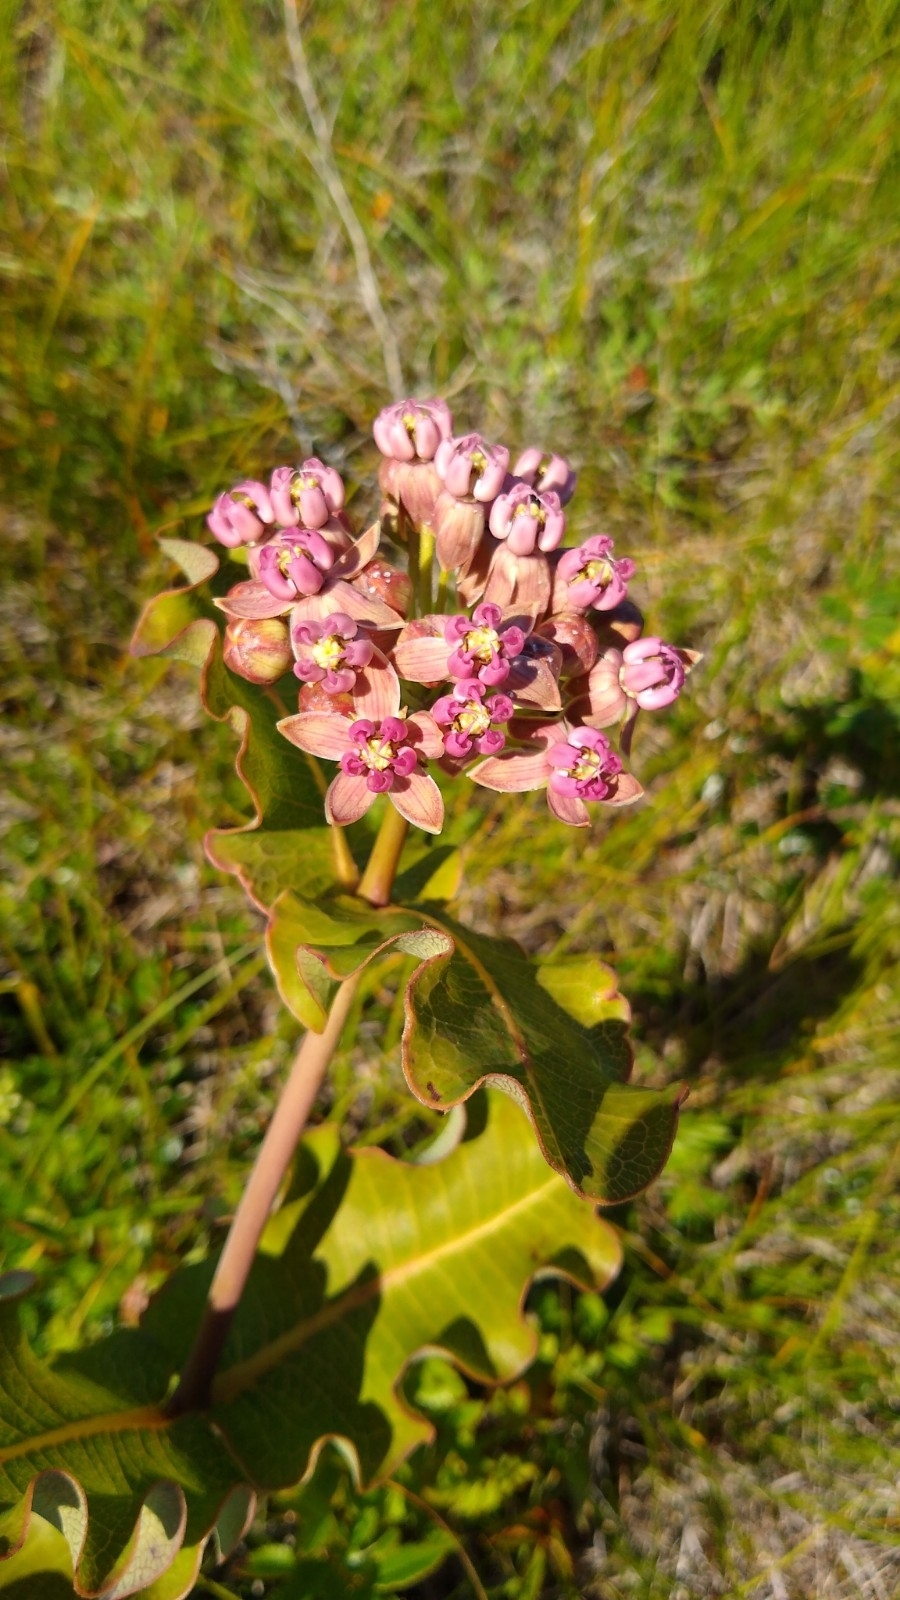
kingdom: Plantae
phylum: Tracheophyta
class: Magnoliopsida
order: Gentianales
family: Apocynaceae
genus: Asclepias
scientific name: Asclepias amplexicaulis
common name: Blunt-leaf milkweed
